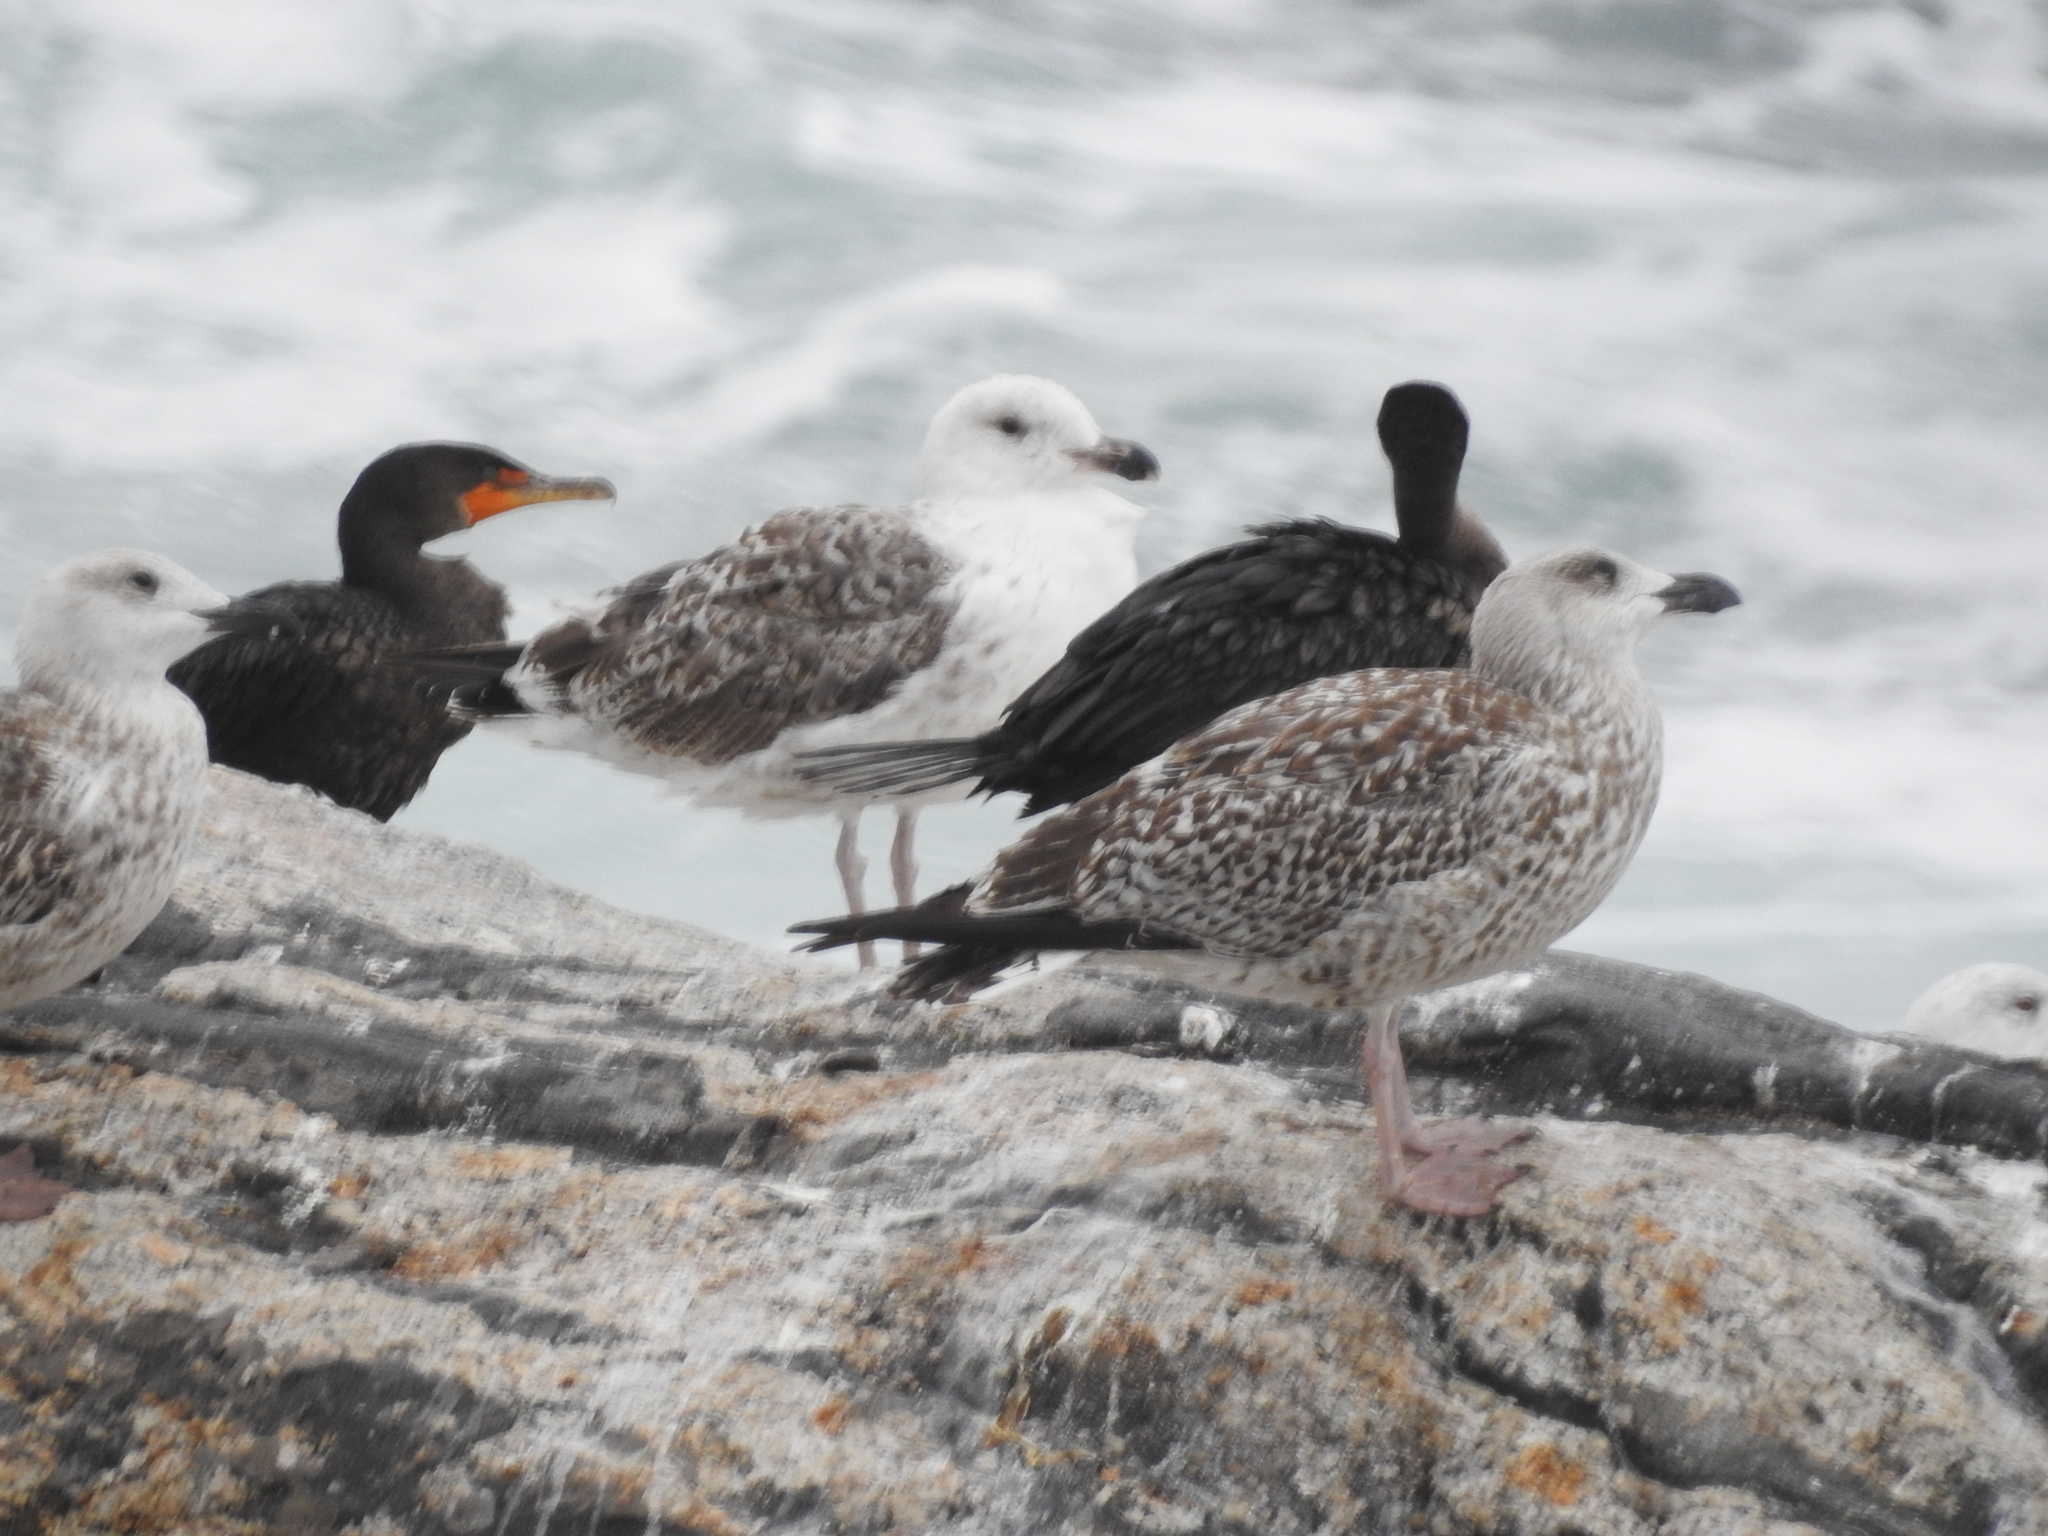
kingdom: Animalia
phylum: Chordata
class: Aves
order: Charadriiformes
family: Laridae
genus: Larus
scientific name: Larus marinus
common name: Great black-backed gull
